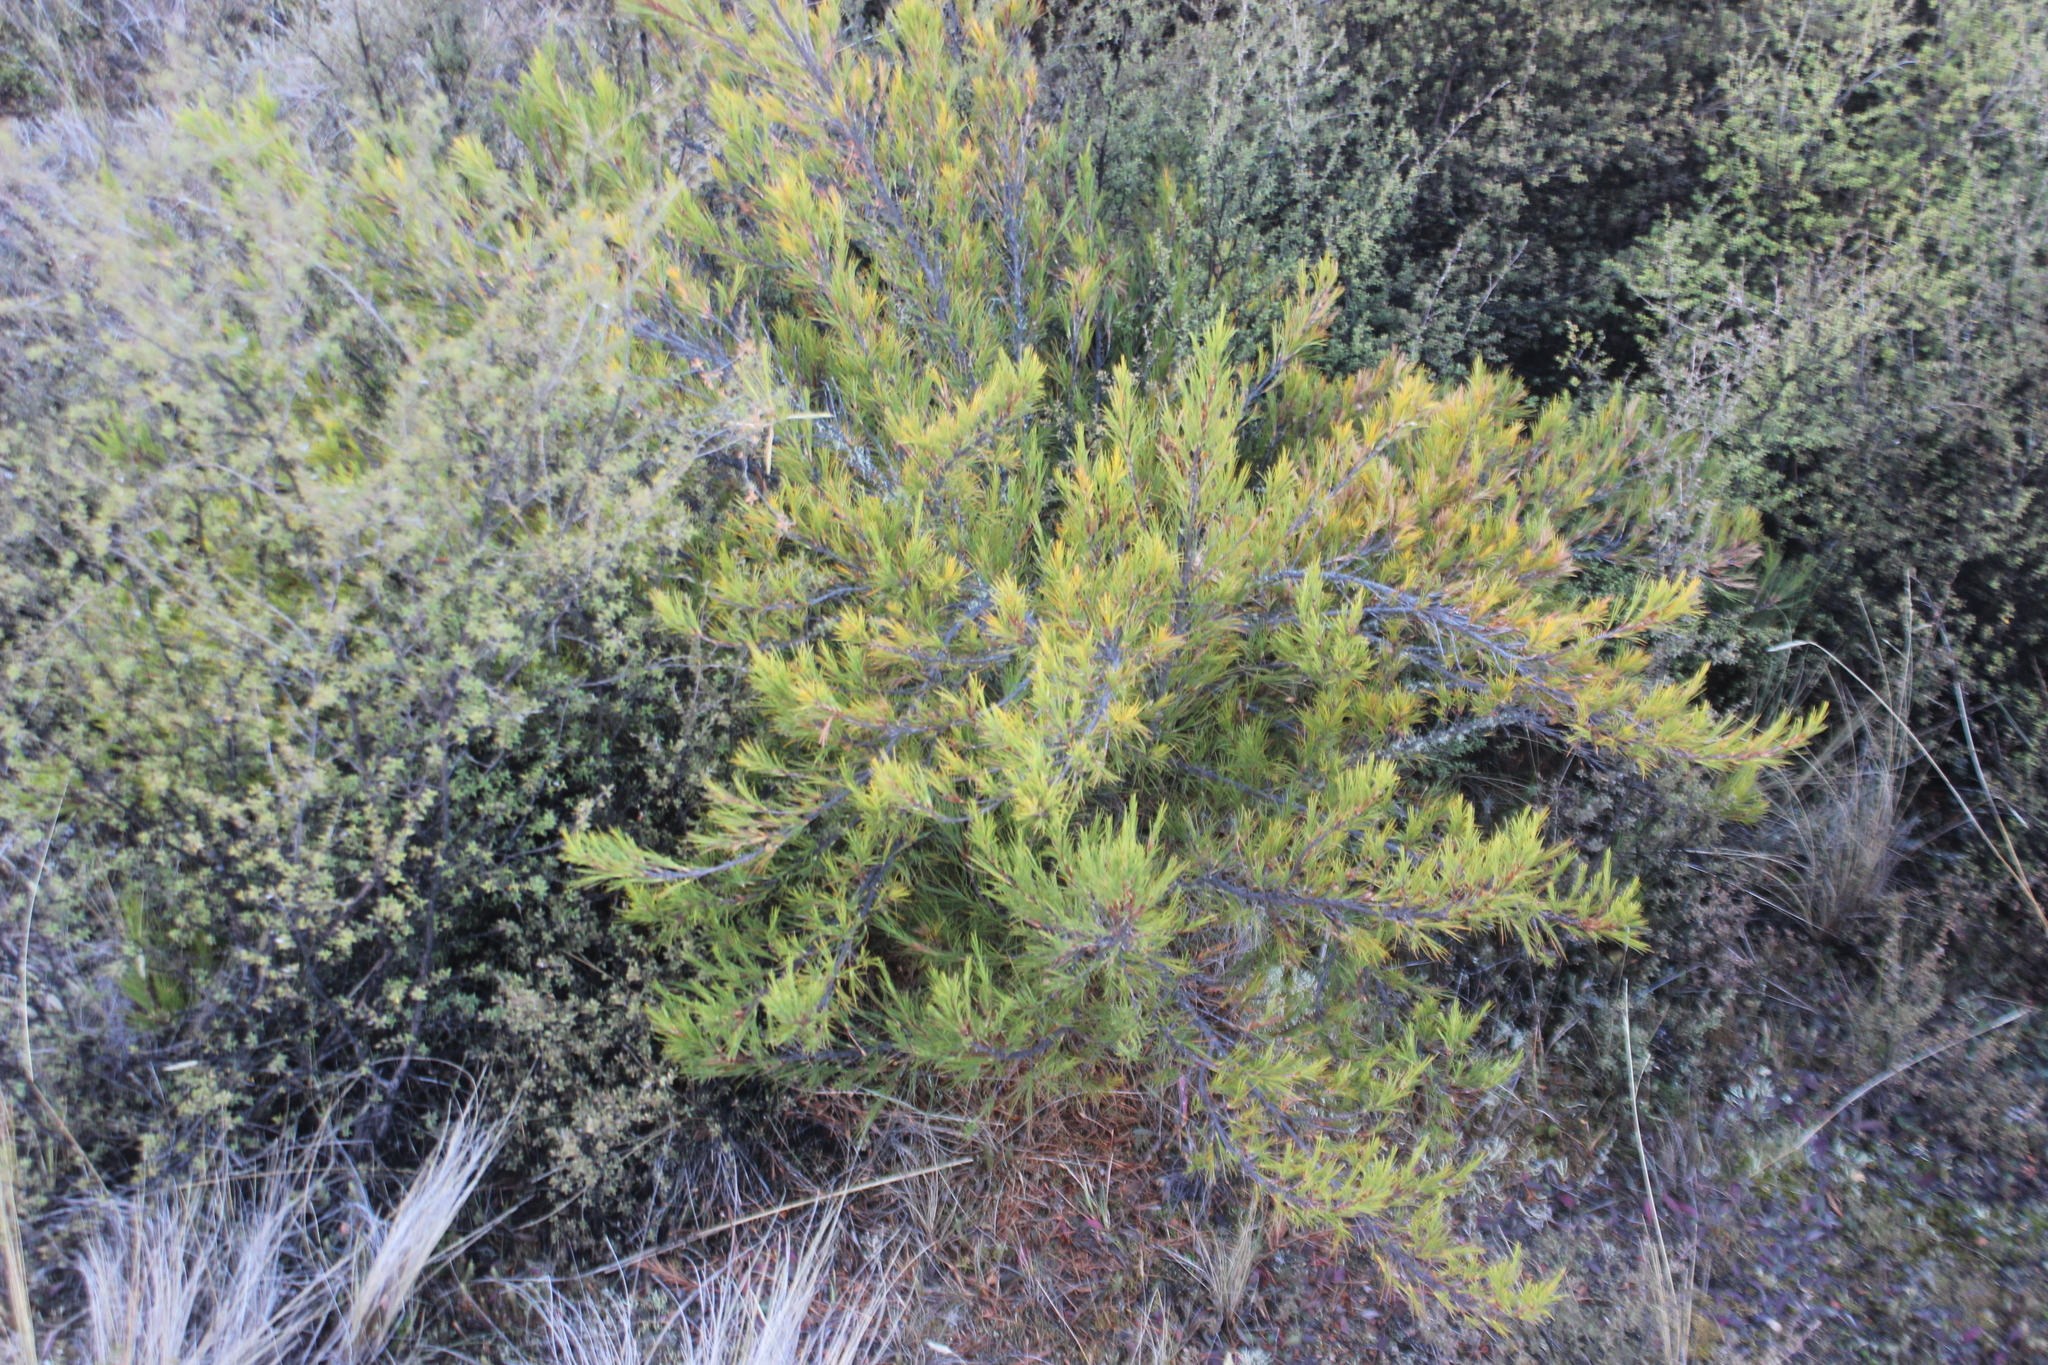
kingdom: Plantae
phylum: Tracheophyta
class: Magnoliopsida
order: Ericales
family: Ericaceae
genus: Dracophyllum
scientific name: Dracophyllum rosmarinifolium
